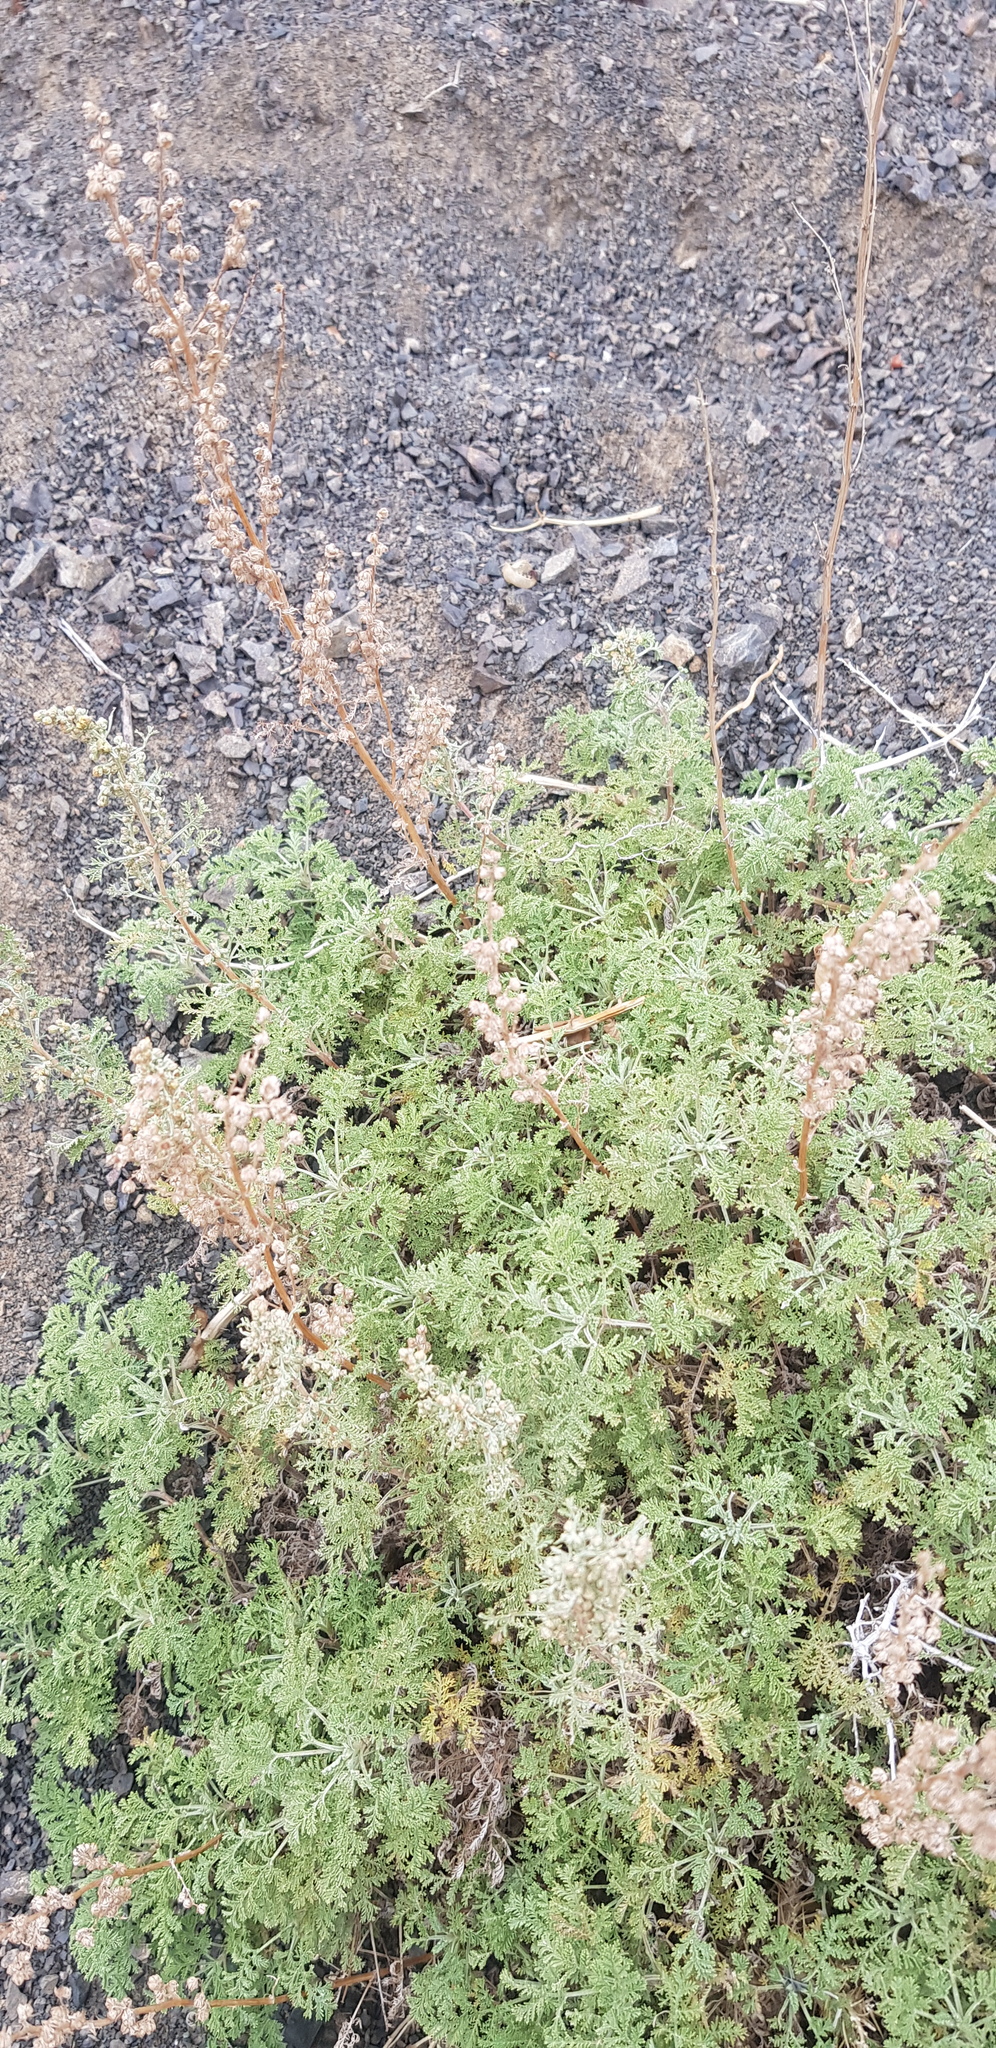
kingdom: Plantae
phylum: Tracheophyta
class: Magnoliopsida
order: Asterales
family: Asteraceae
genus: Artemisia
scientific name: Artemisia
